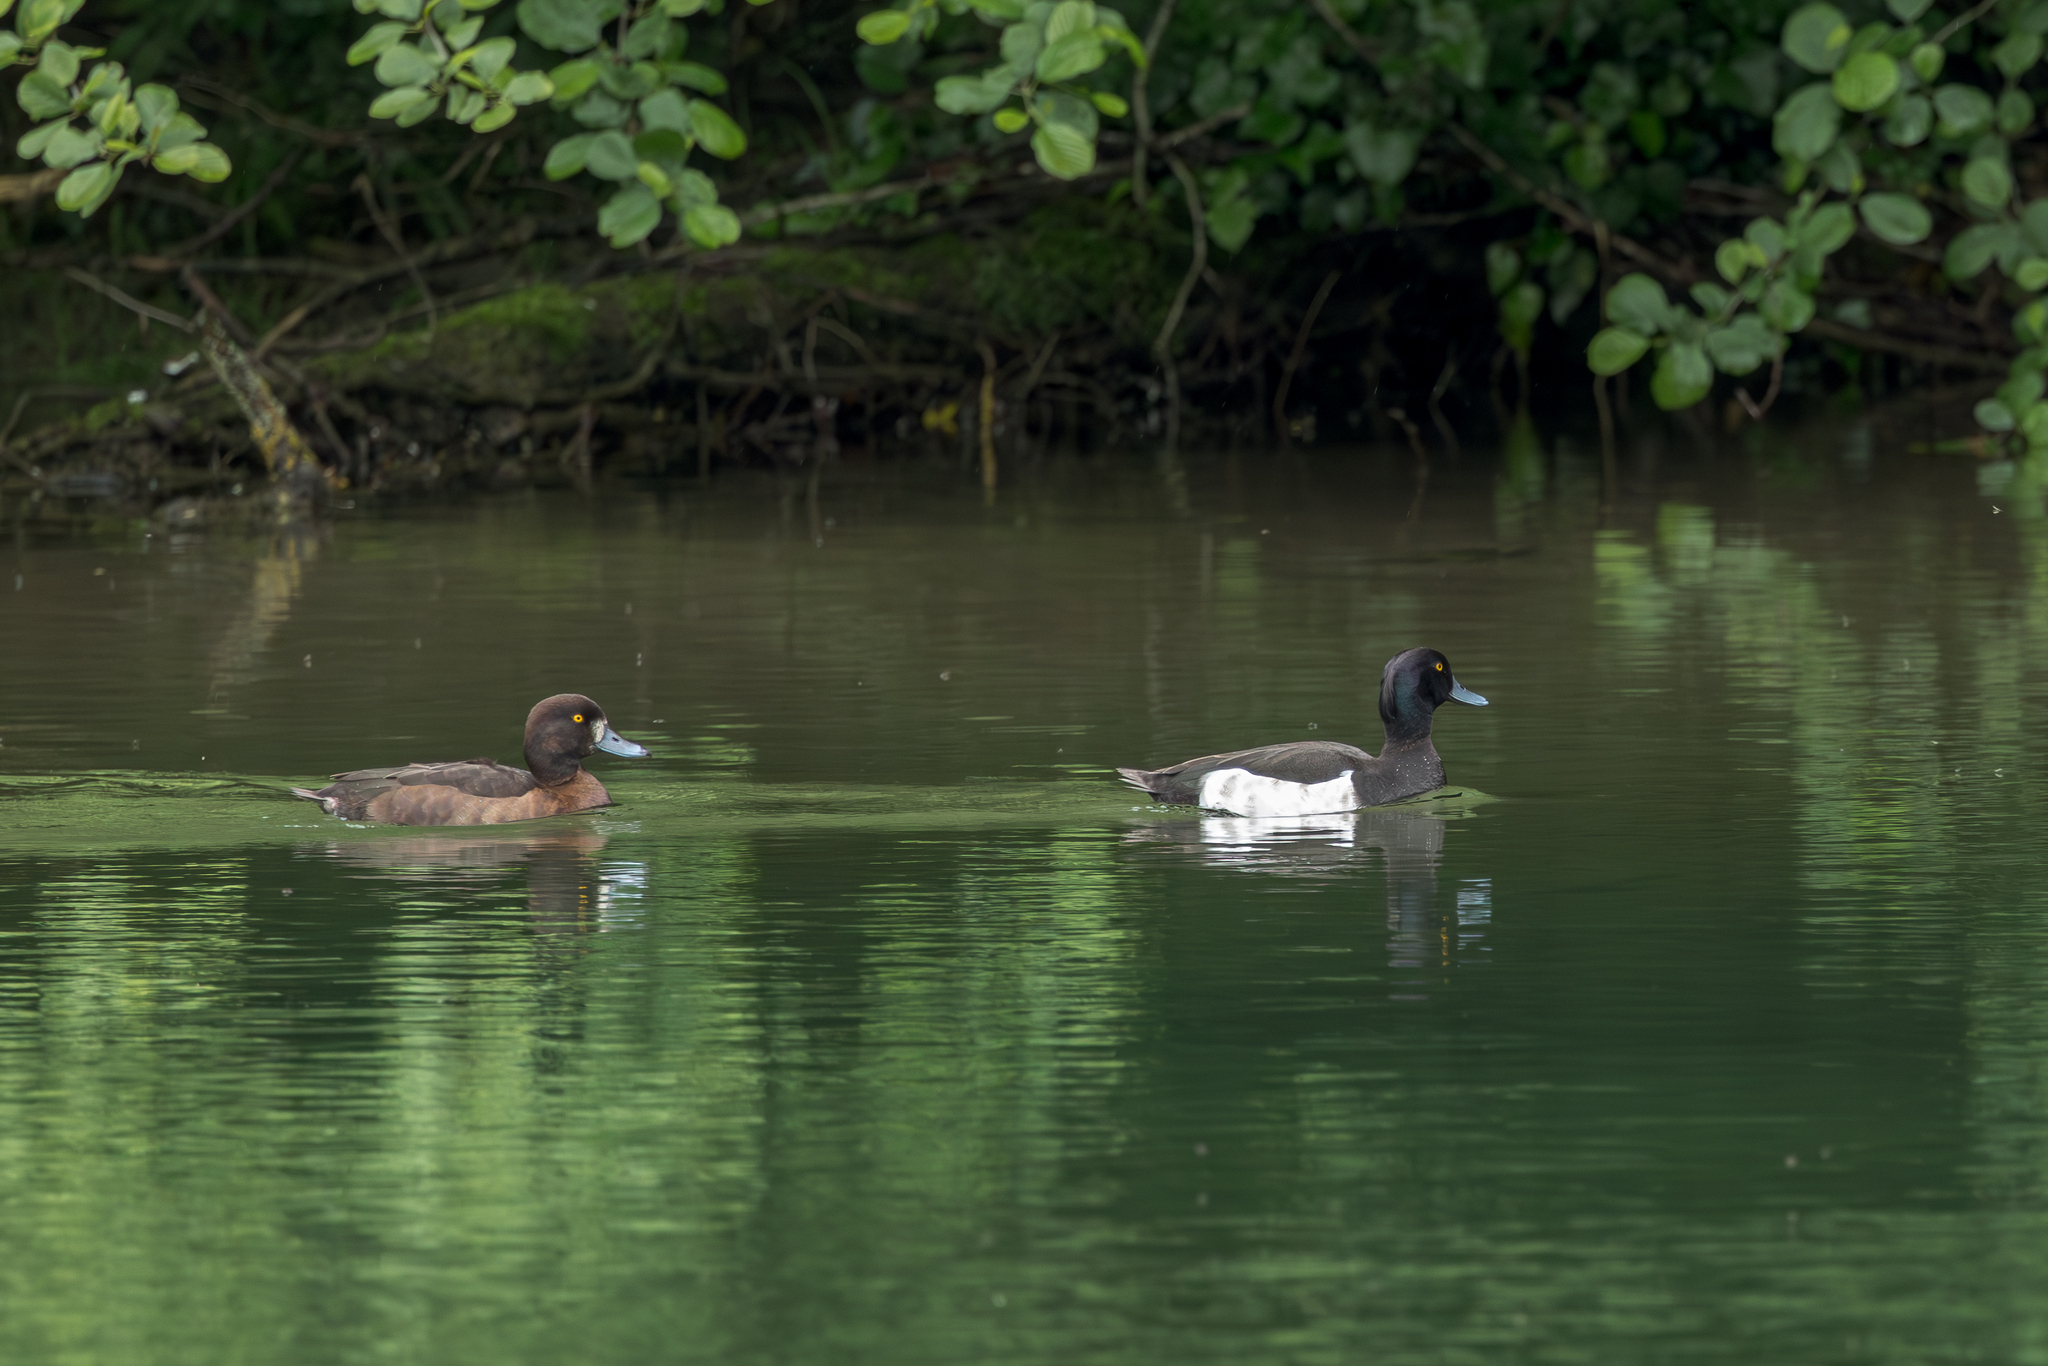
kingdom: Animalia
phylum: Chordata
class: Aves
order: Anseriformes
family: Anatidae
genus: Aythya
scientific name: Aythya fuligula
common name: Tufted duck
